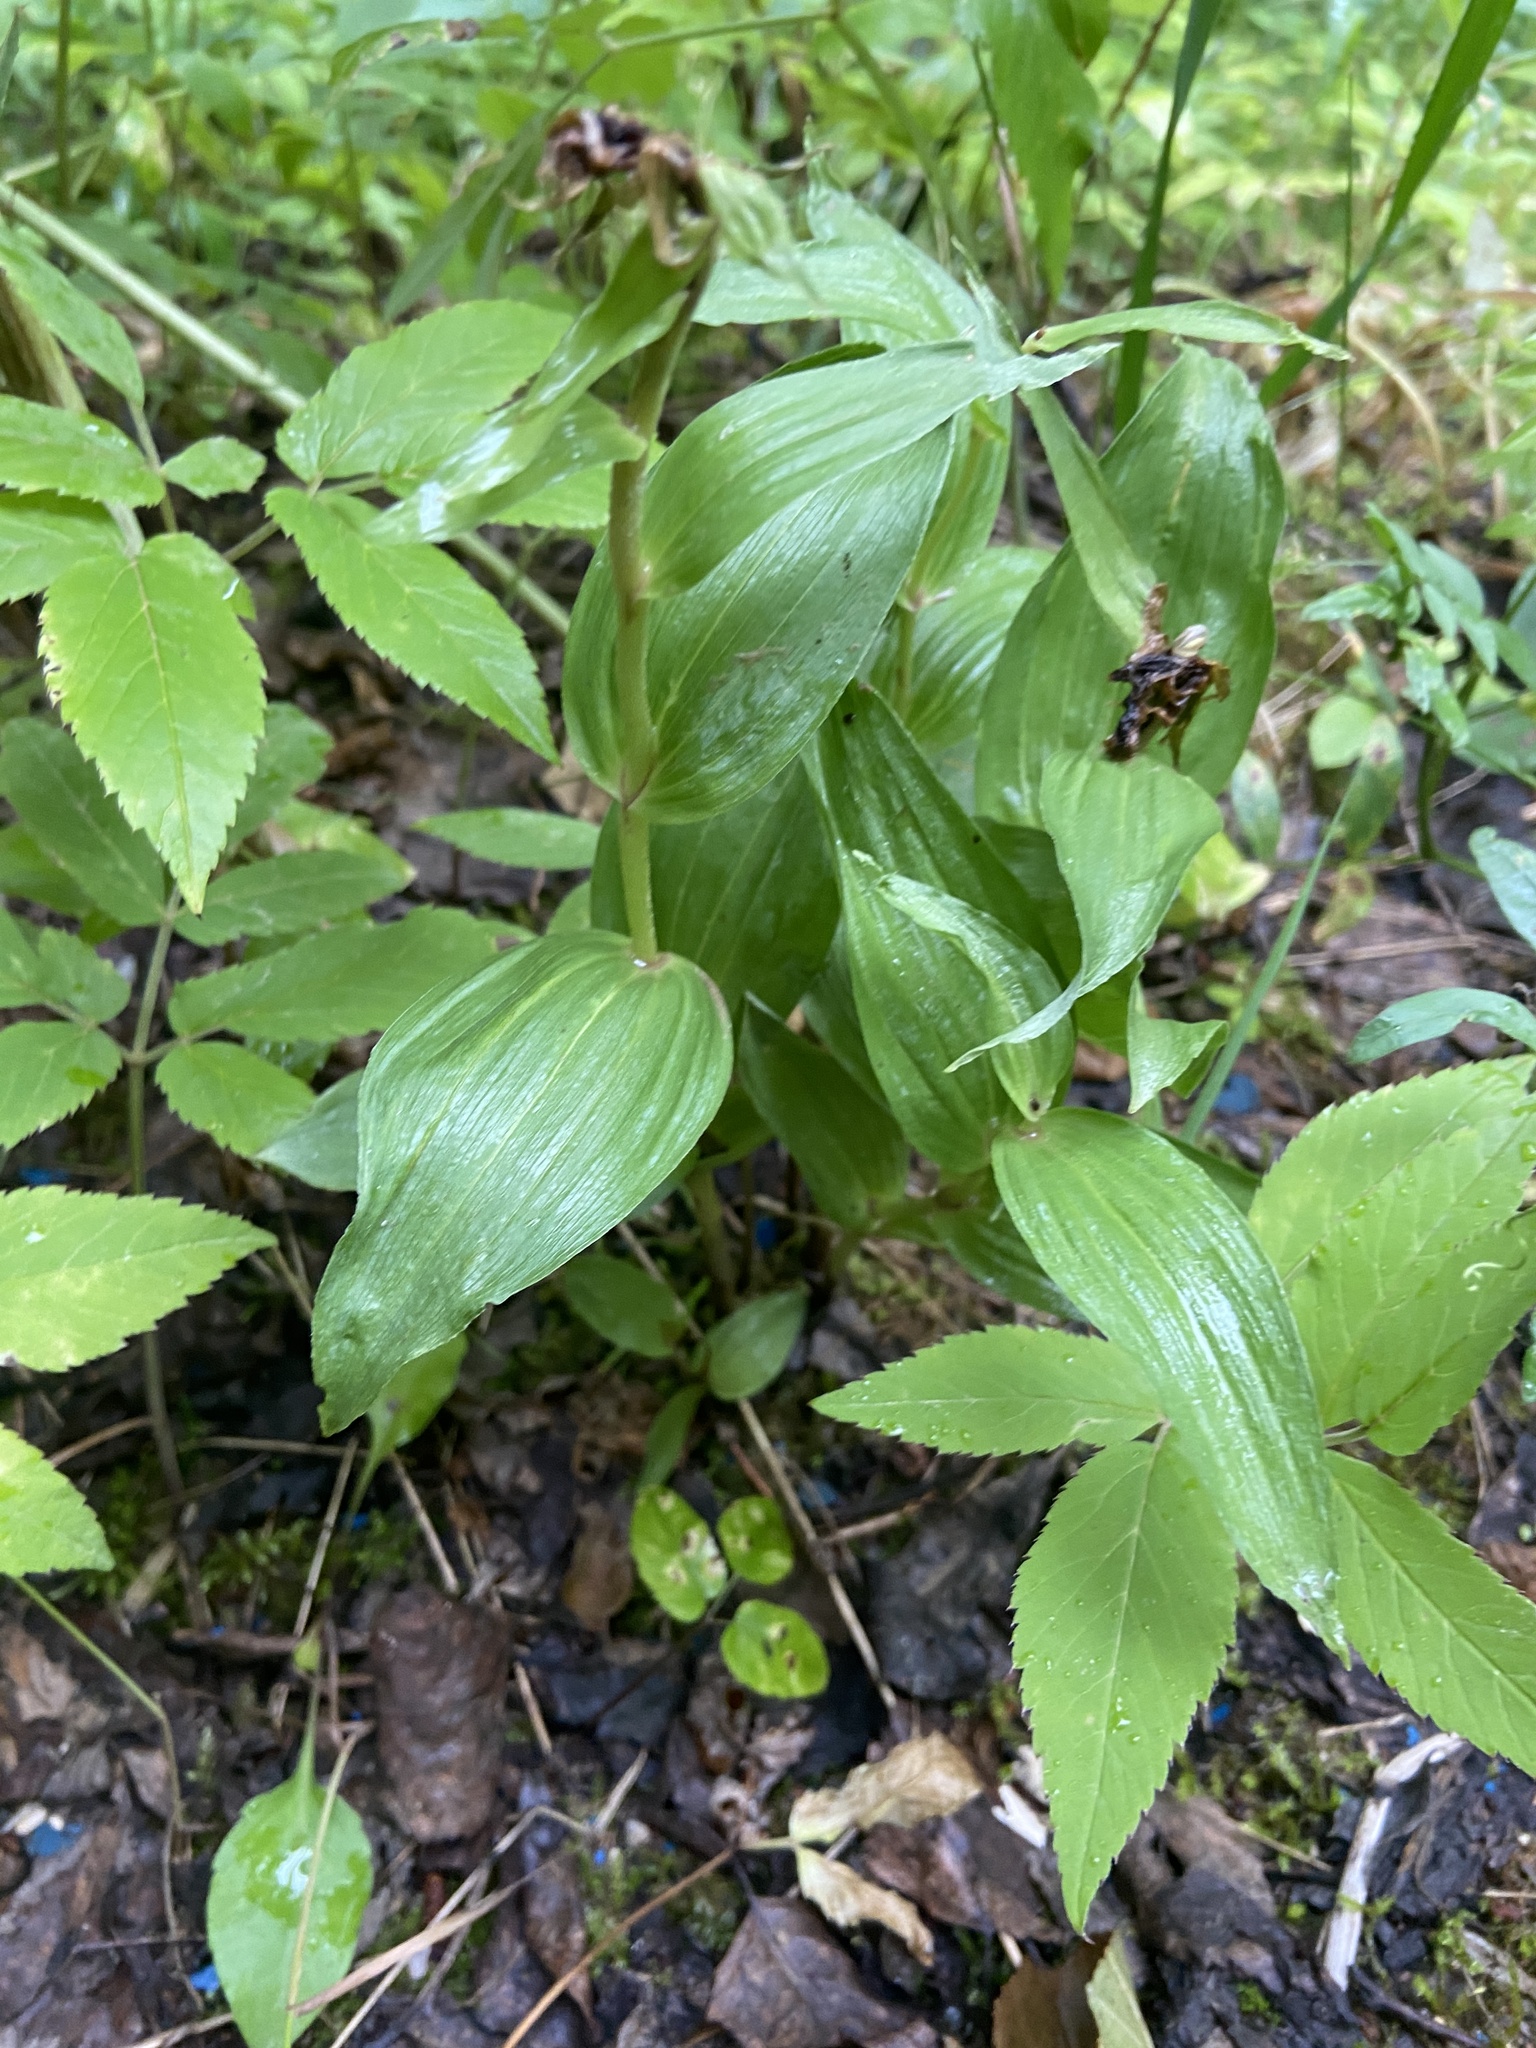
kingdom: Plantae
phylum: Tracheophyta
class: Liliopsida
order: Asparagales
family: Orchidaceae
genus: Epipactis
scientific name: Epipactis helleborine
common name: Broad-leaved helleborine
